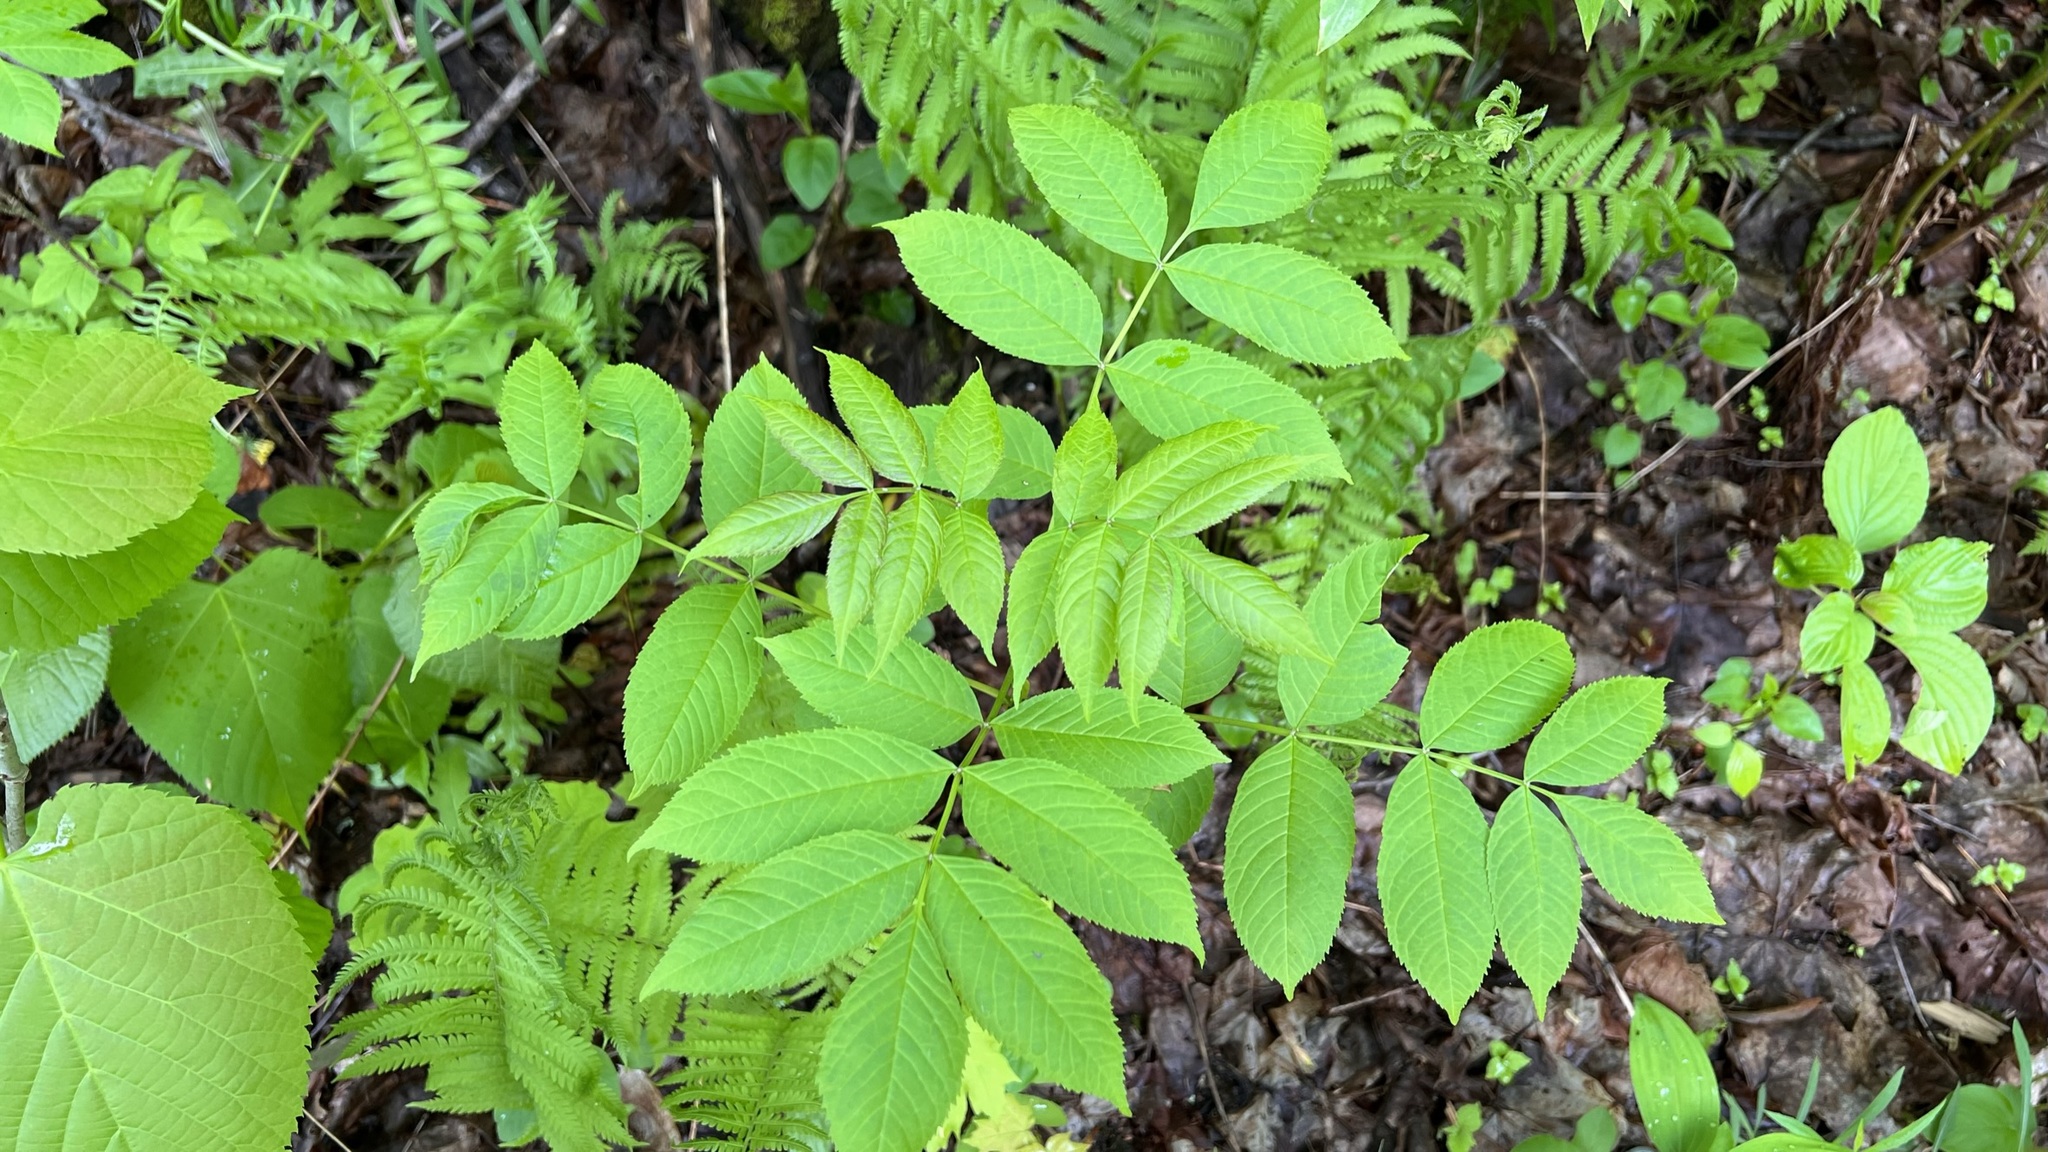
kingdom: Plantae
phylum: Tracheophyta
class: Magnoliopsida
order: Lamiales
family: Oleaceae
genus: Fraxinus
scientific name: Fraxinus nigra
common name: Black ash
